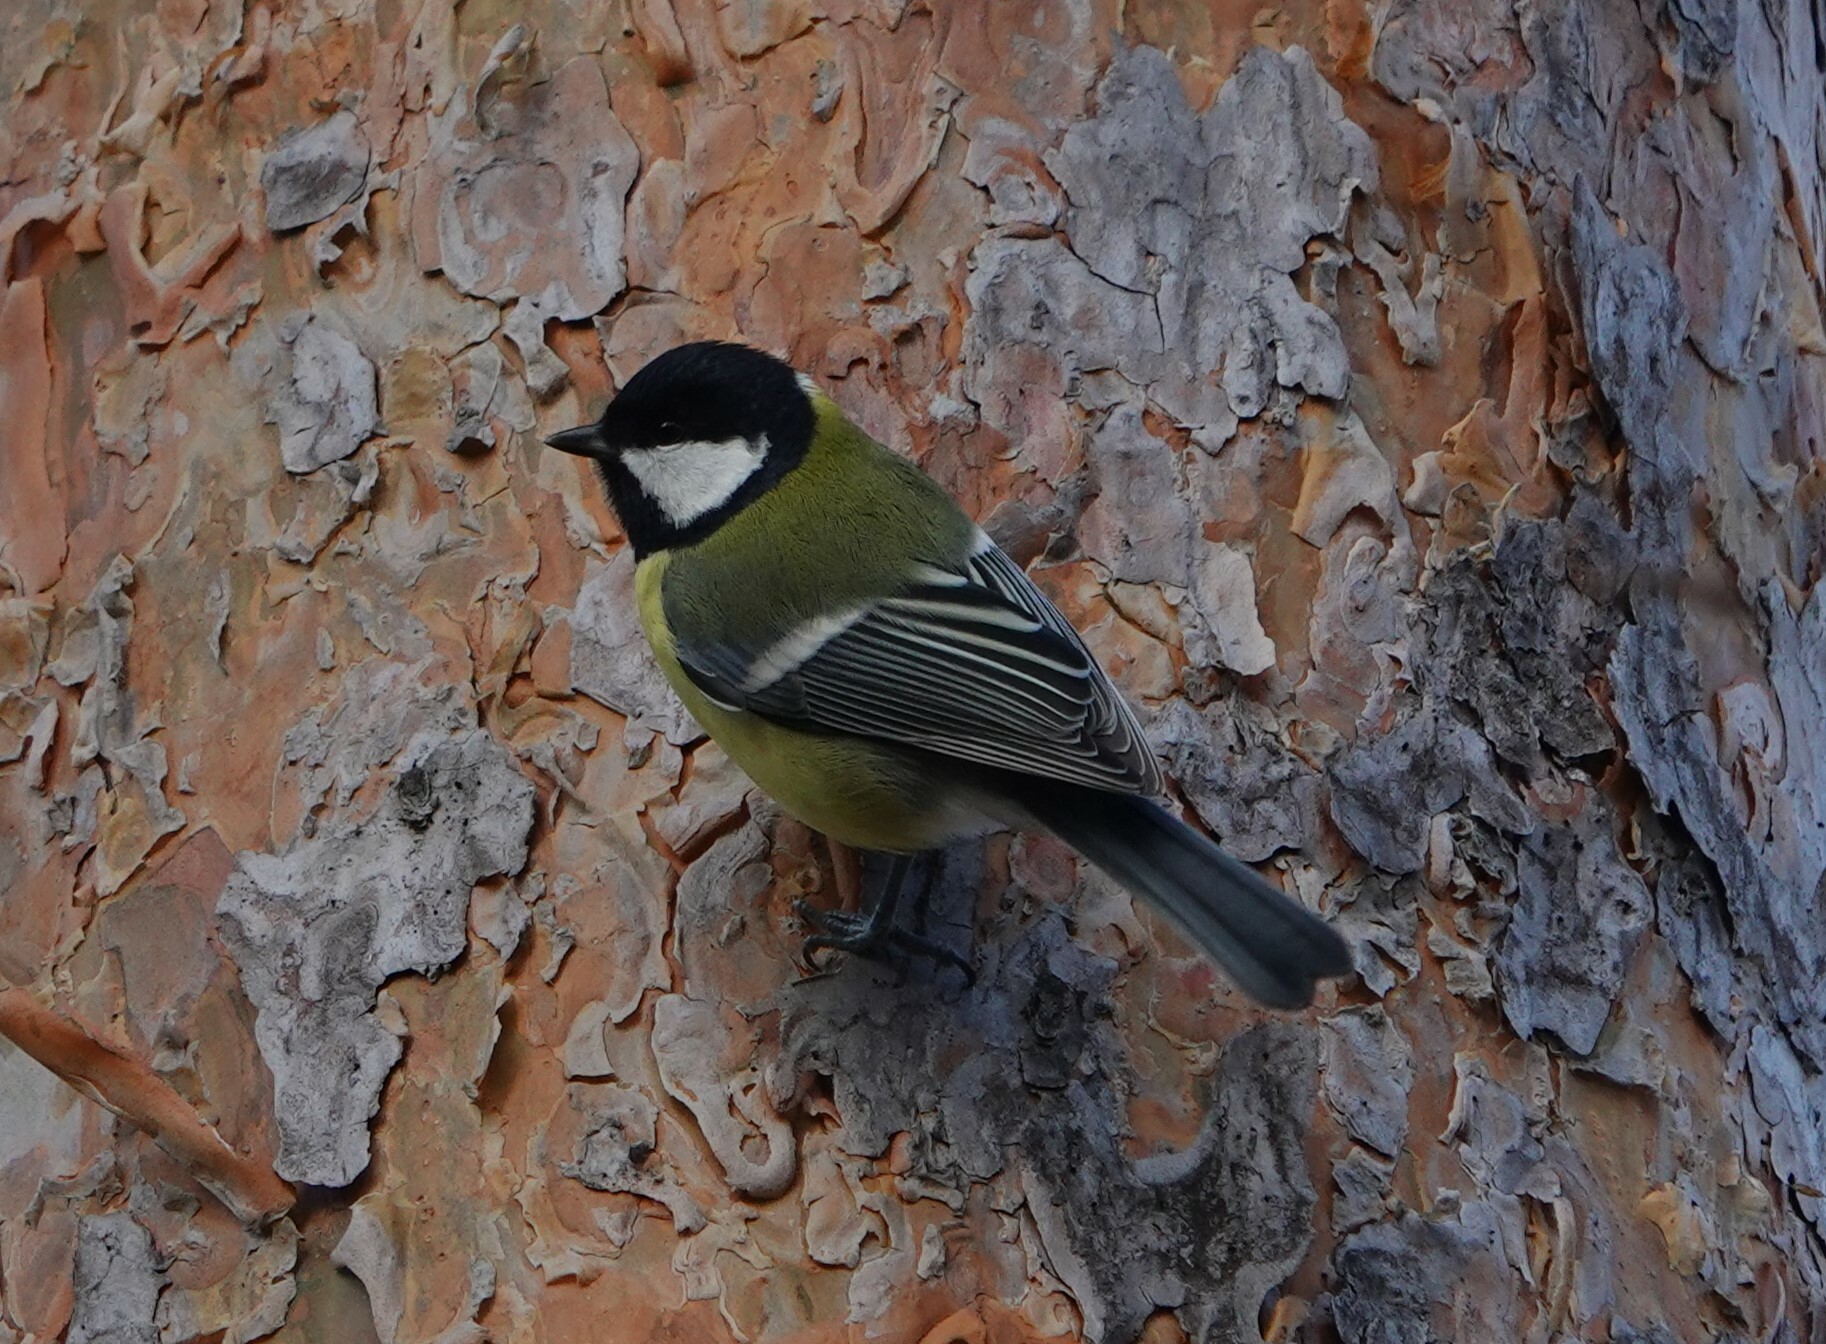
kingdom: Animalia
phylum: Chordata
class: Aves
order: Passeriformes
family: Paridae
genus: Parus
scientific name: Parus major
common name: Great tit
